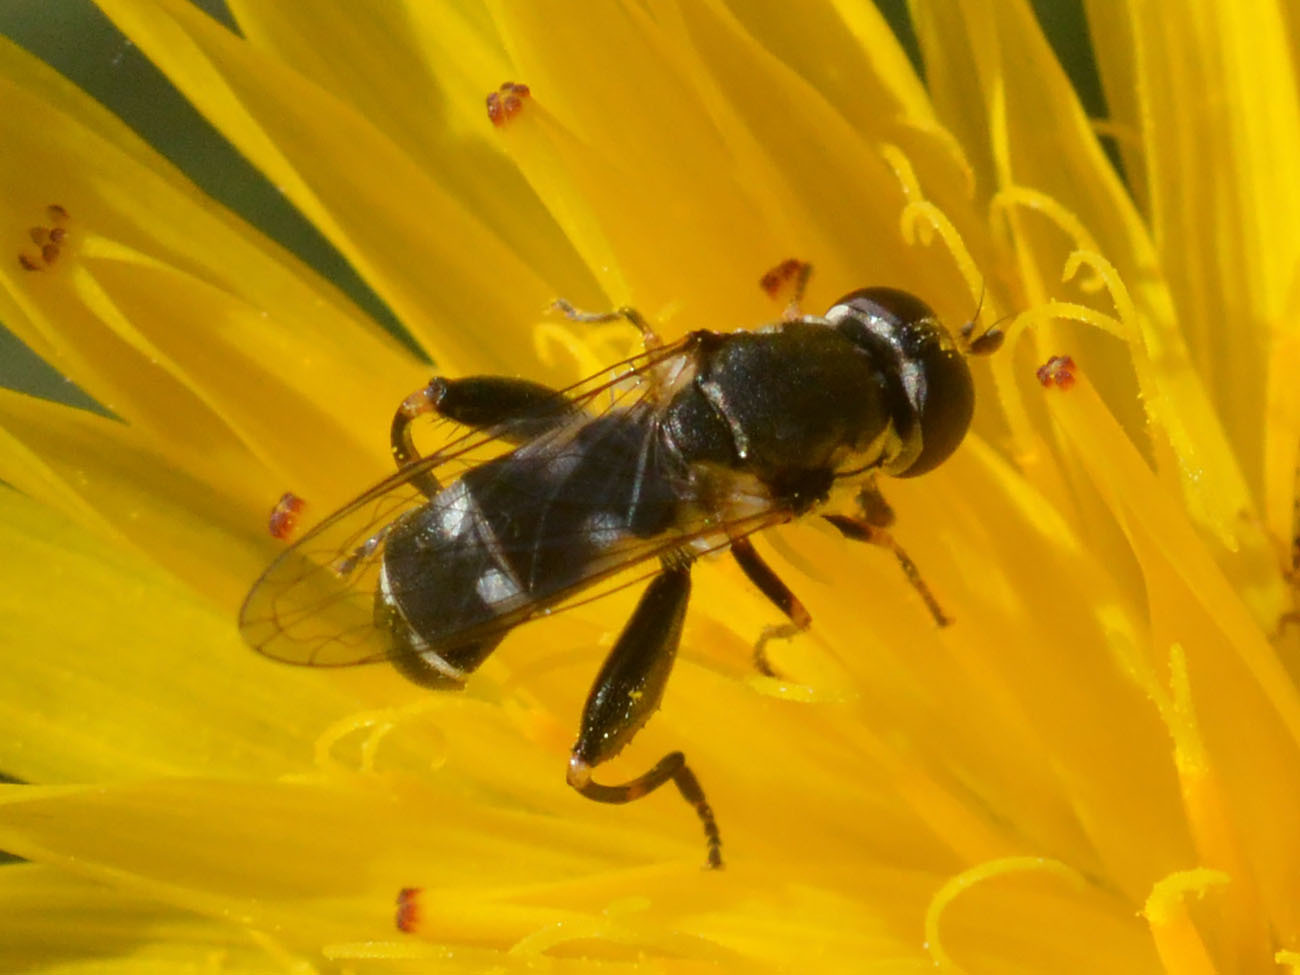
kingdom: Animalia
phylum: Arthropoda
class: Insecta
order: Diptera
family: Syrphidae
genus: Syritta
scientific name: Syritta pipiens
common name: Hover fly
